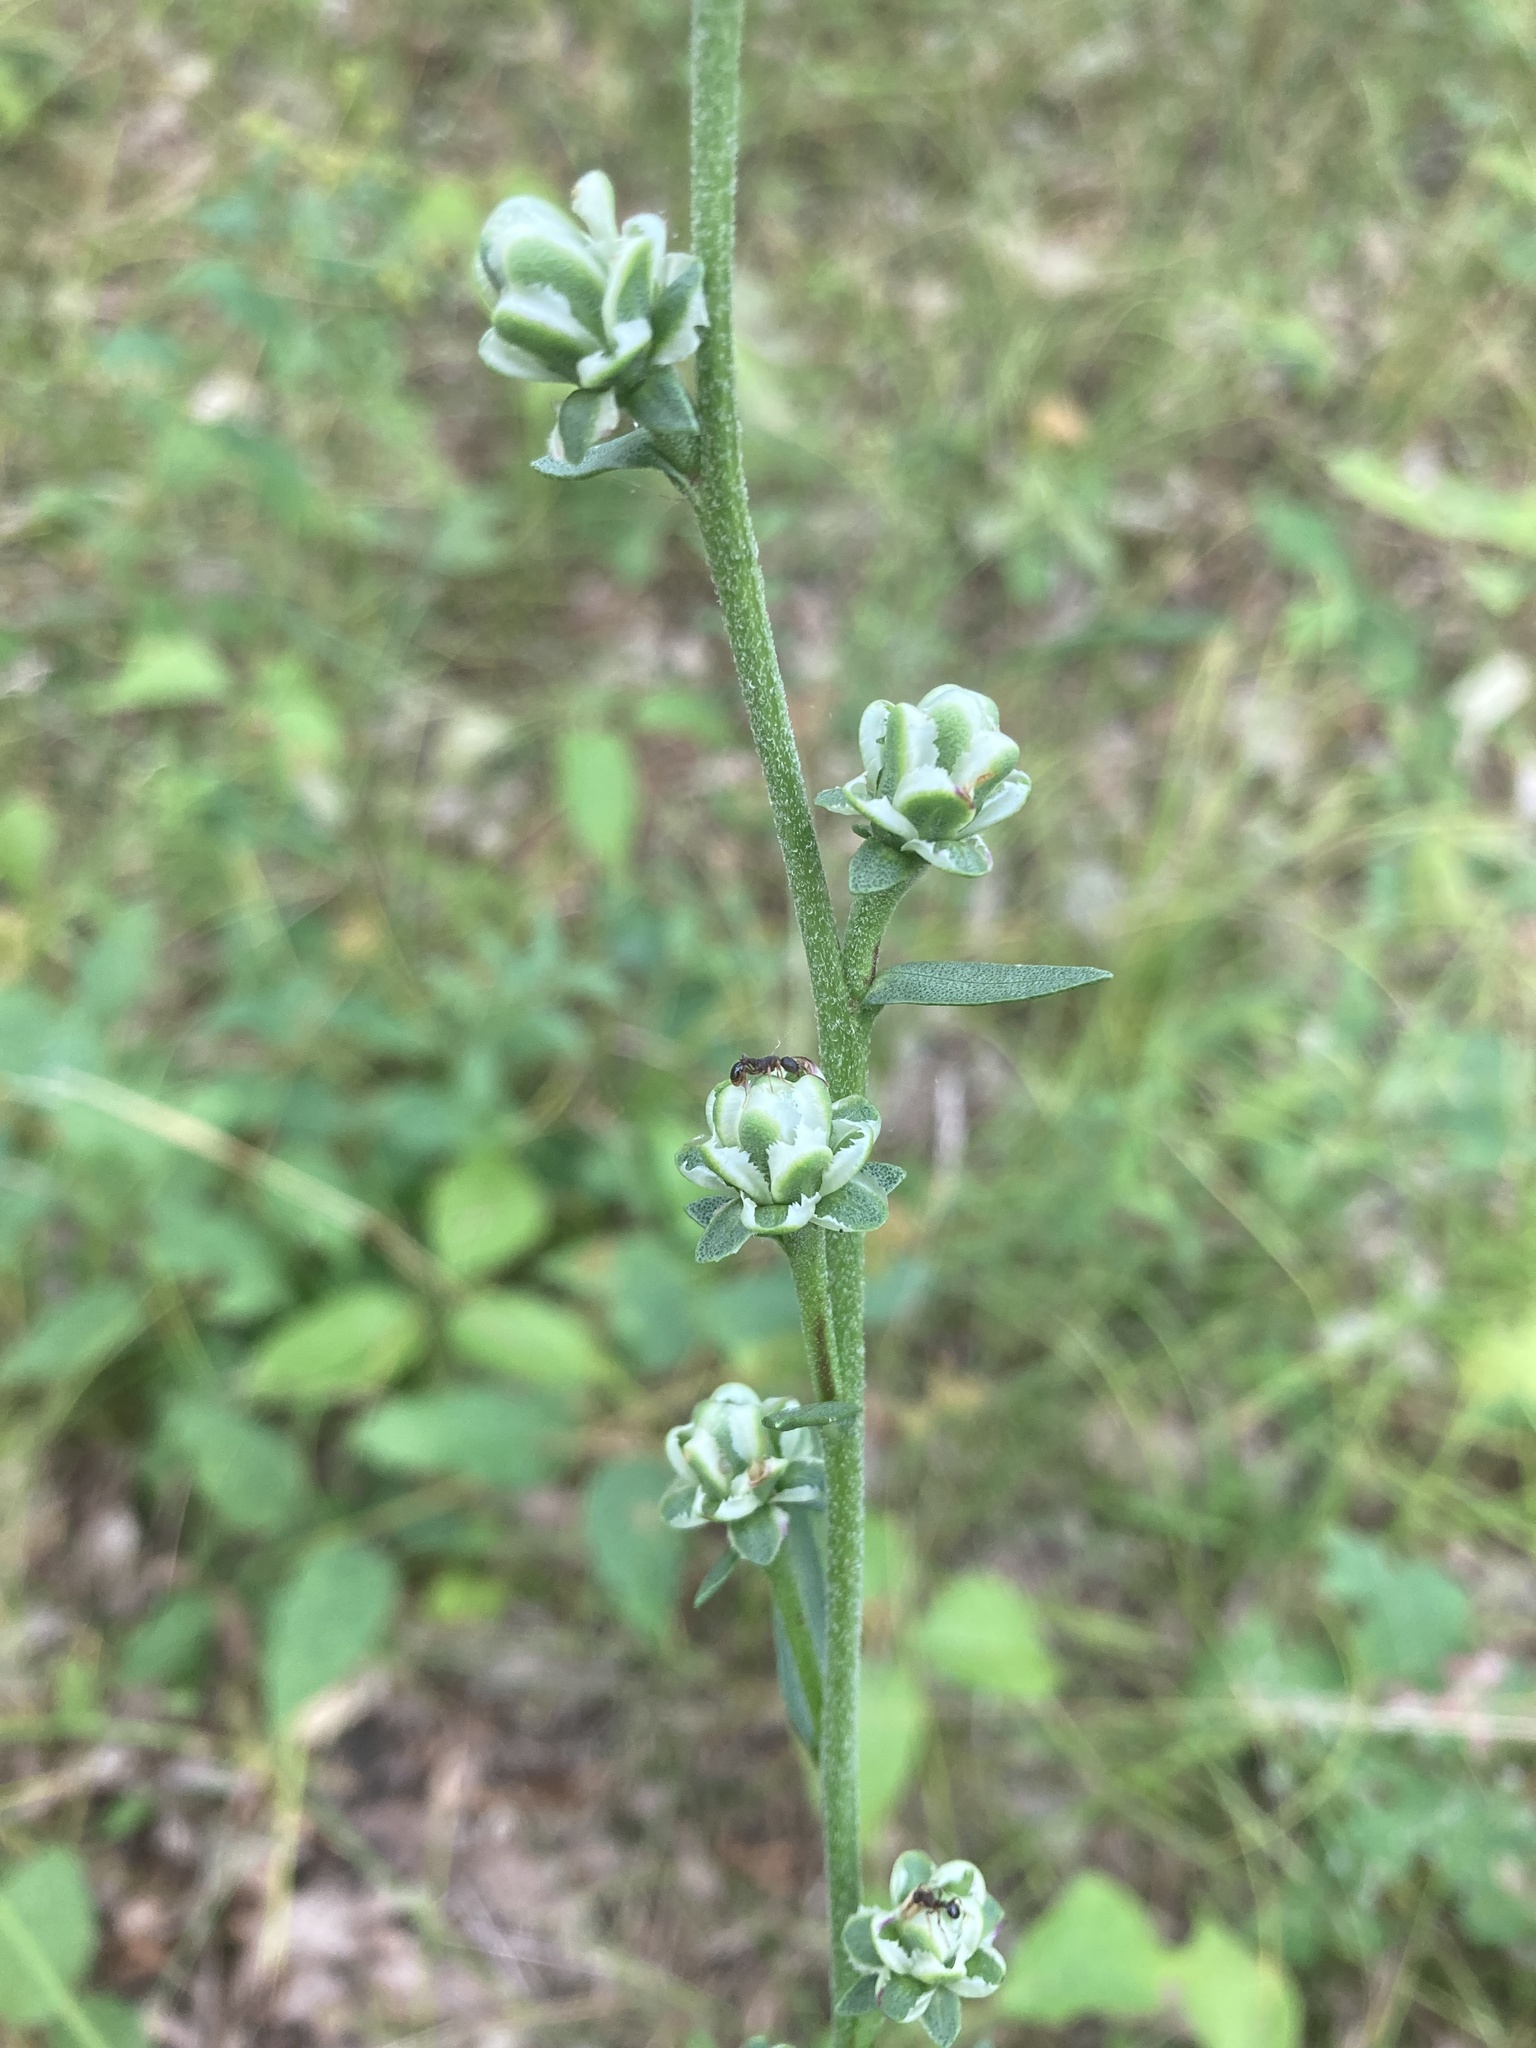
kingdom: Plantae
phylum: Tracheophyta
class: Magnoliopsida
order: Asterales
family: Asteraceae
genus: Liatris
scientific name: Liatris aspera
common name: Lacerate blazing-star
